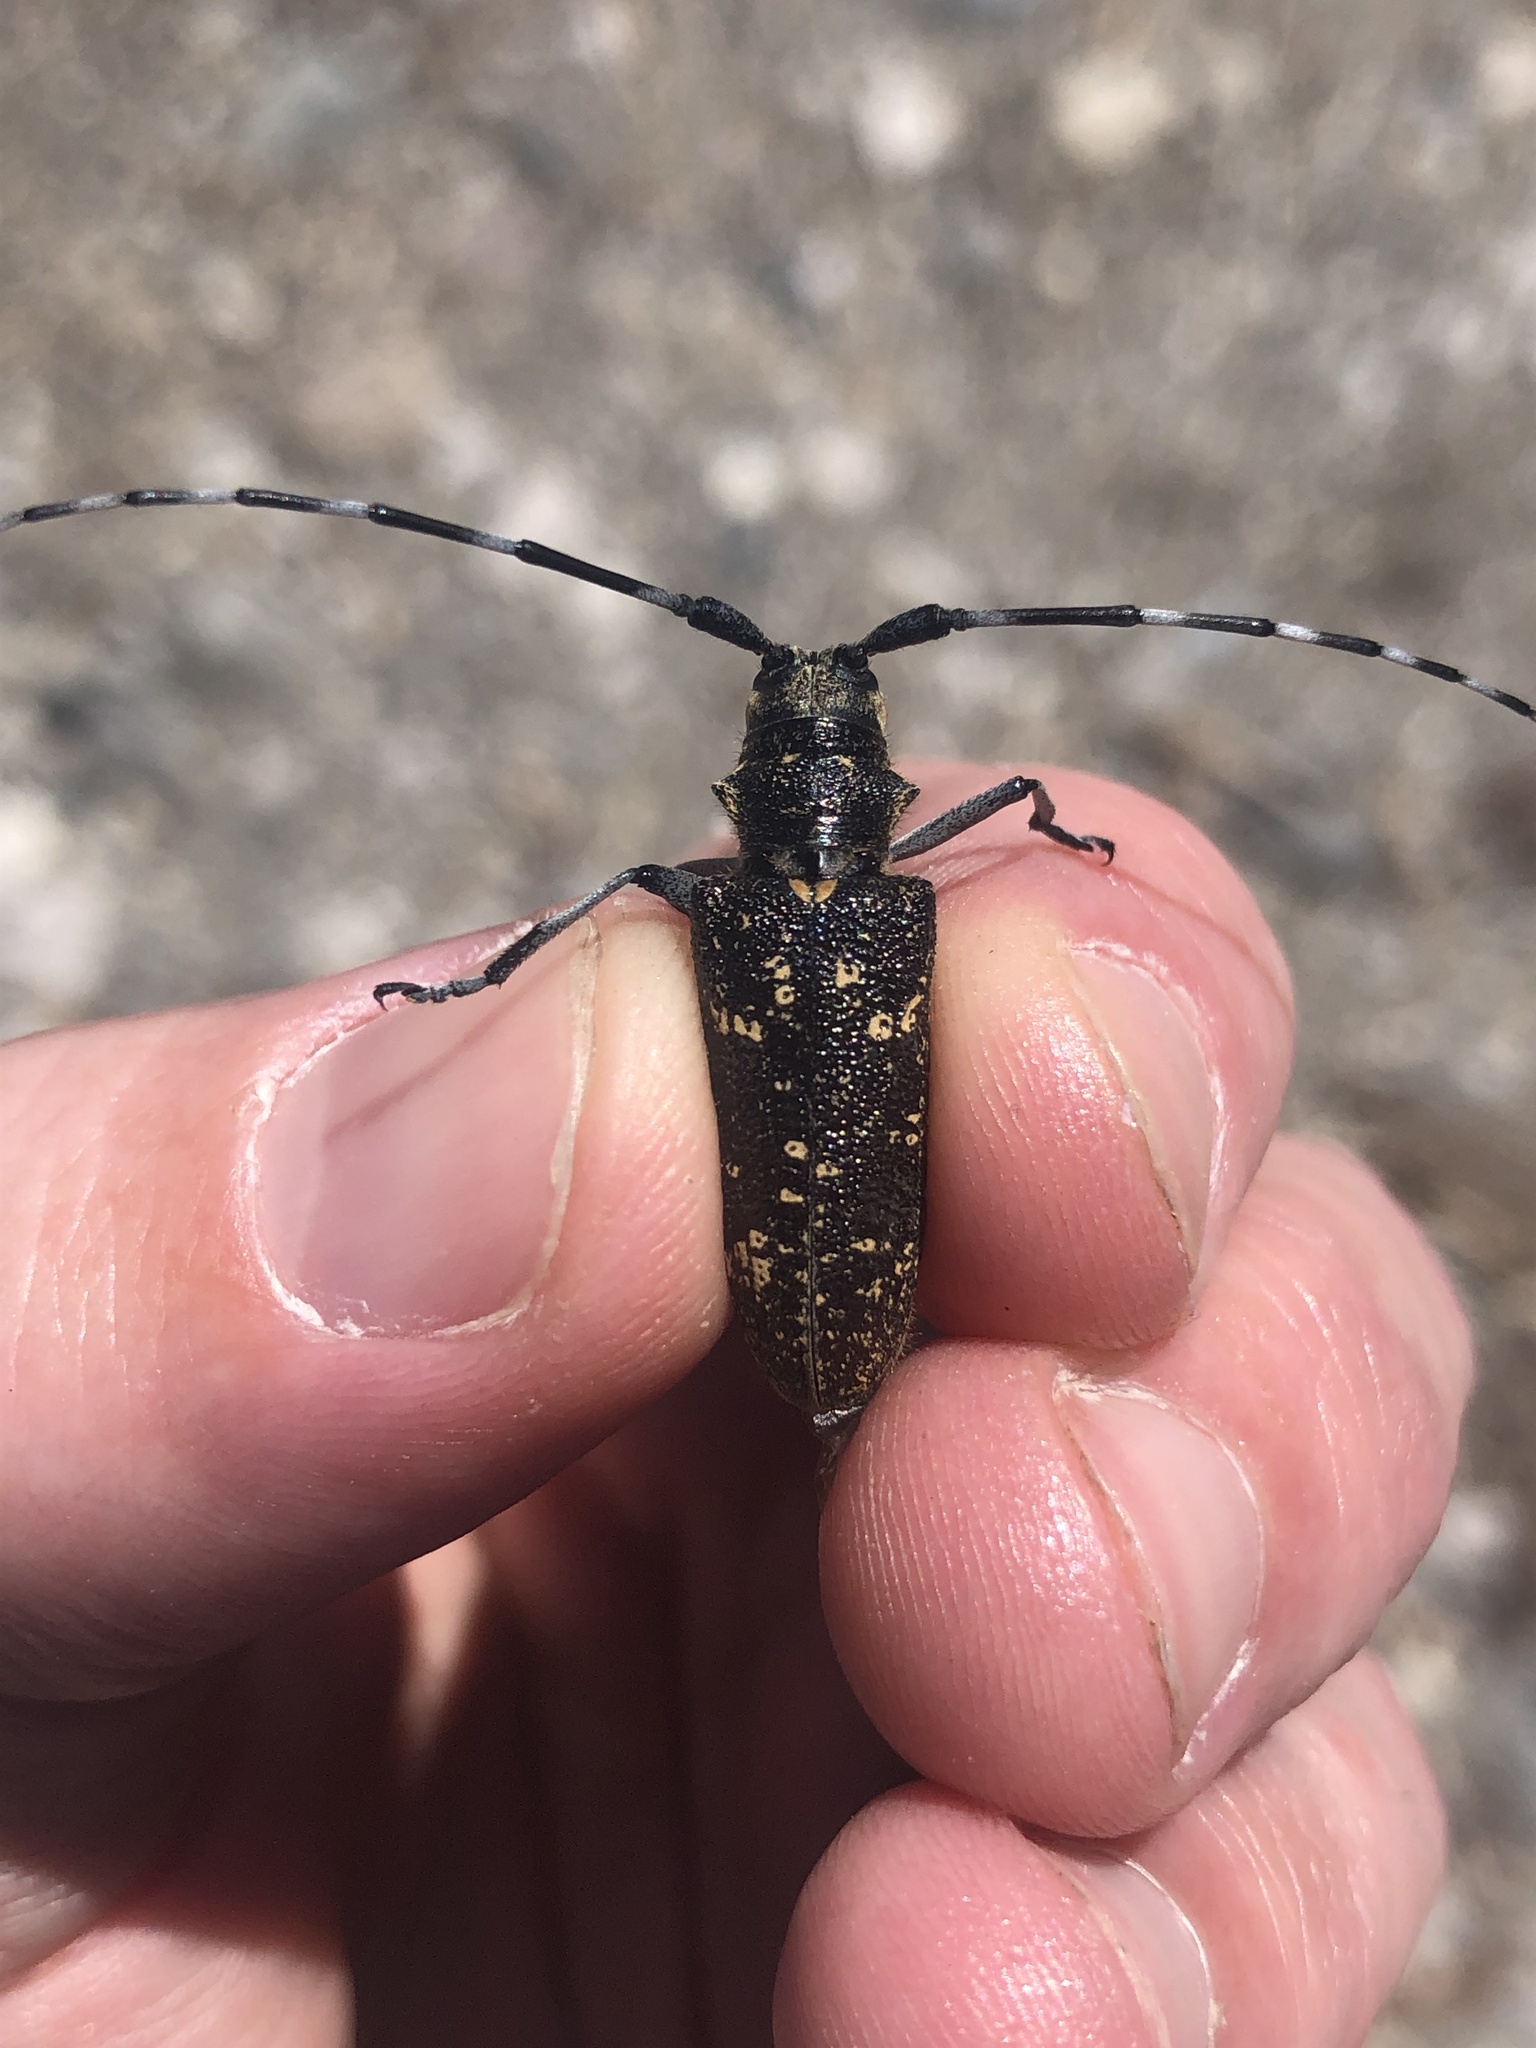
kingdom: Animalia
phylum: Arthropoda
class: Insecta
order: Coleoptera
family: Cerambycidae
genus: Monochamus
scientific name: Monochamus sutor
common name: Pine sawyer
